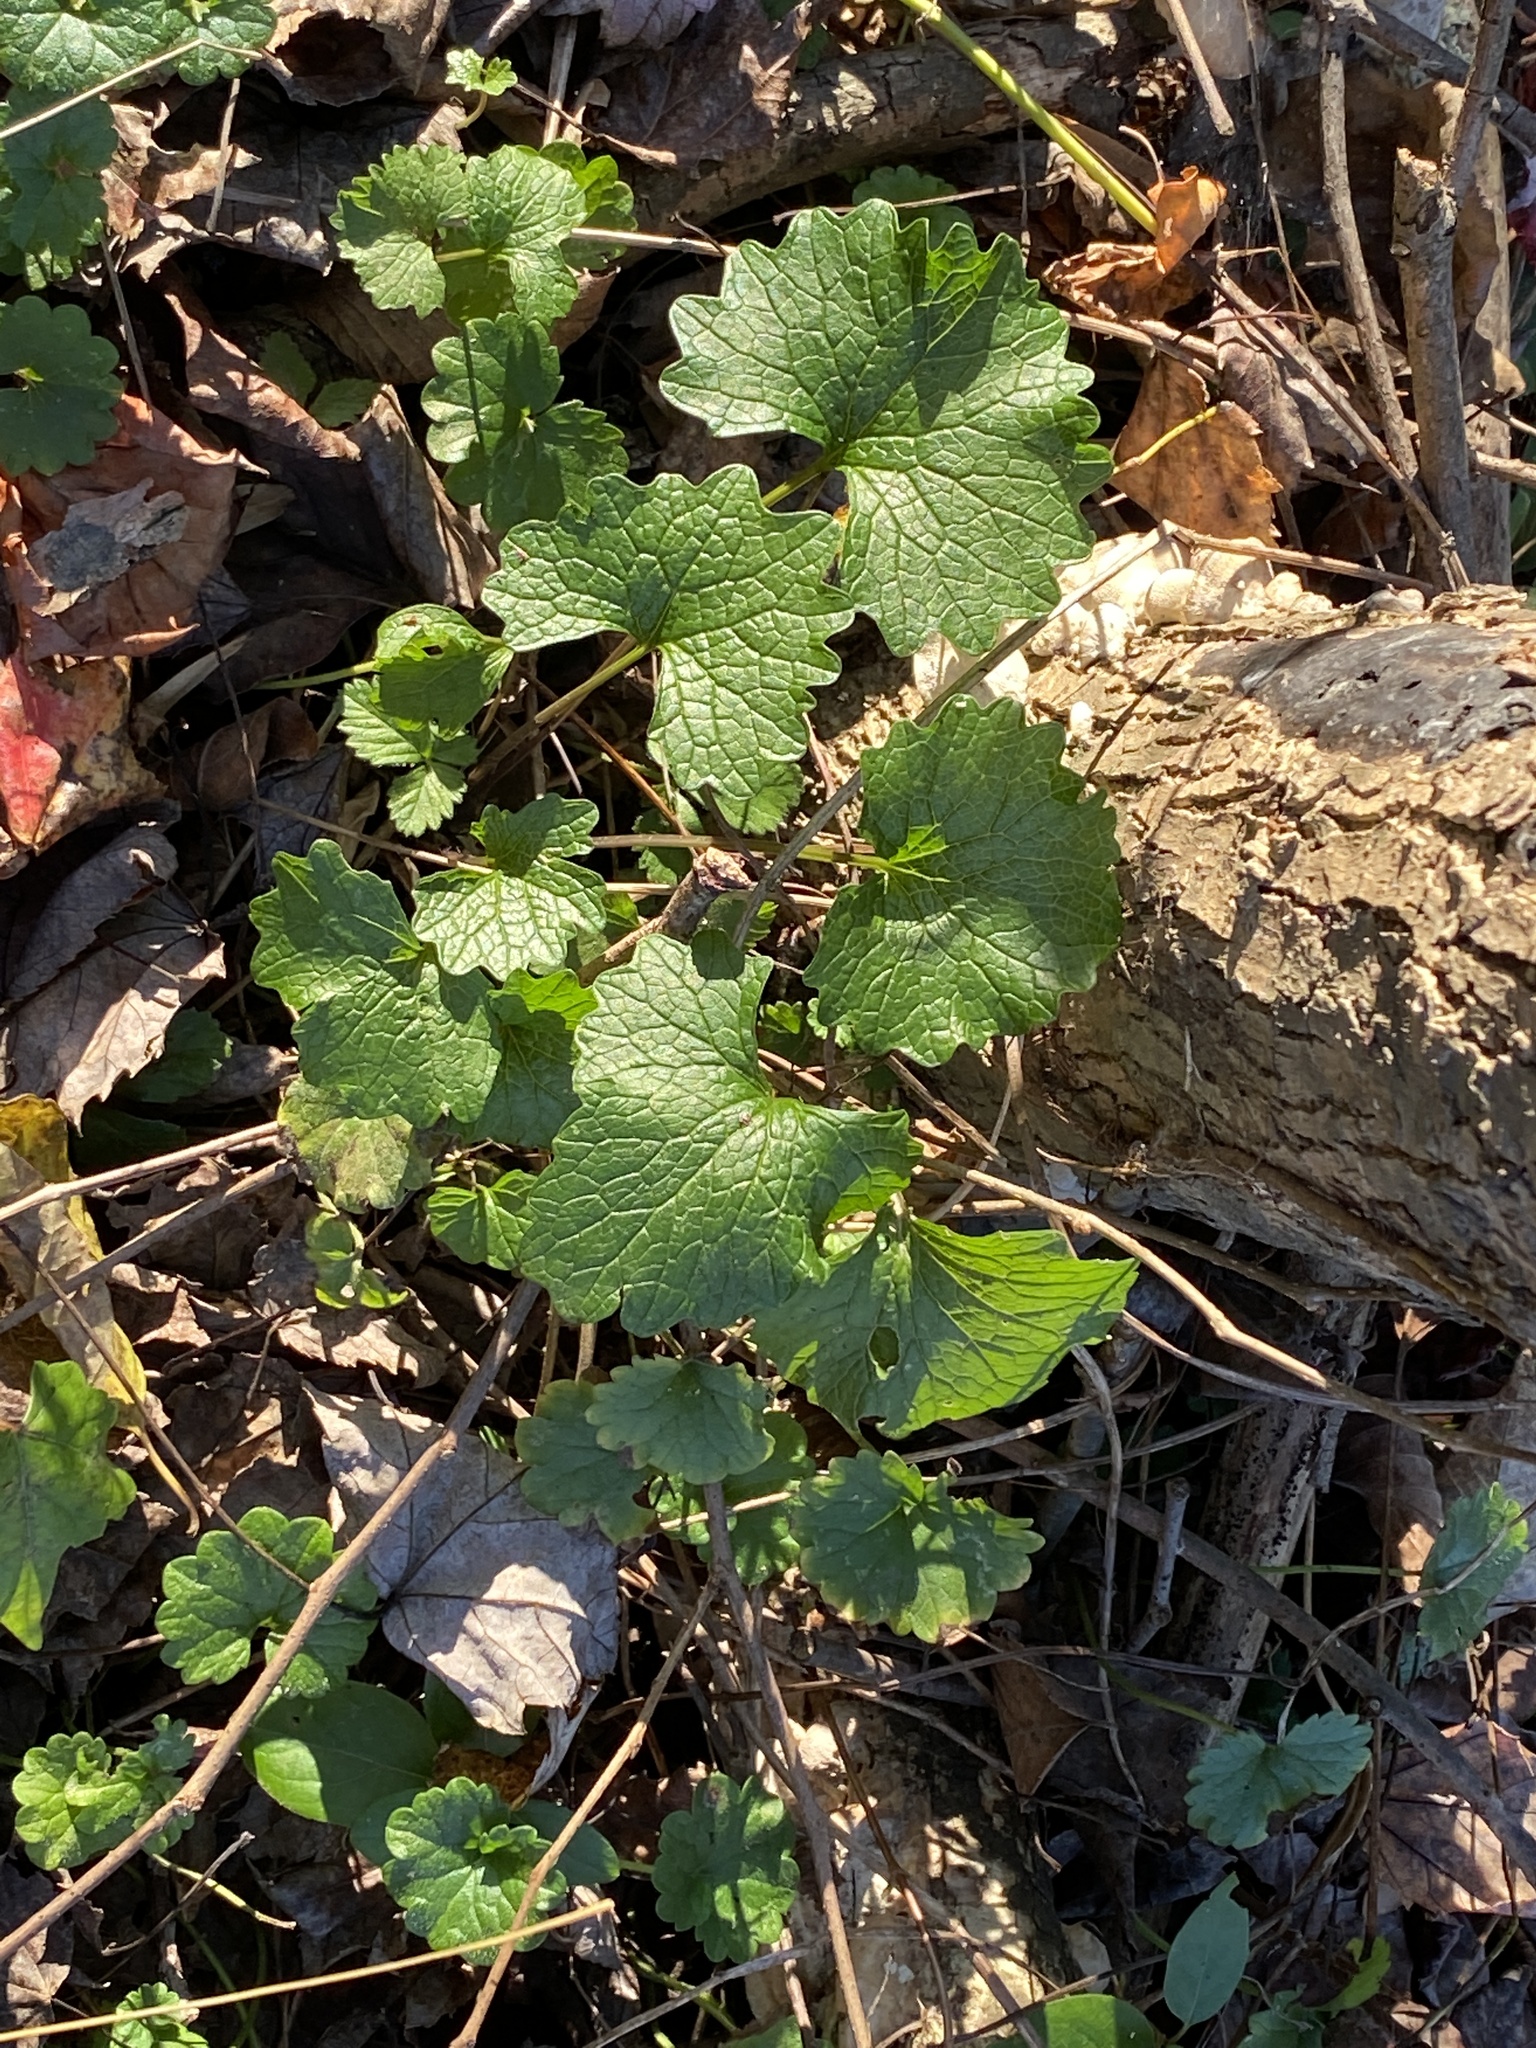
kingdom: Plantae
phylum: Tracheophyta
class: Magnoliopsida
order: Brassicales
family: Brassicaceae
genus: Alliaria
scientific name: Alliaria petiolata
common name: Garlic mustard
